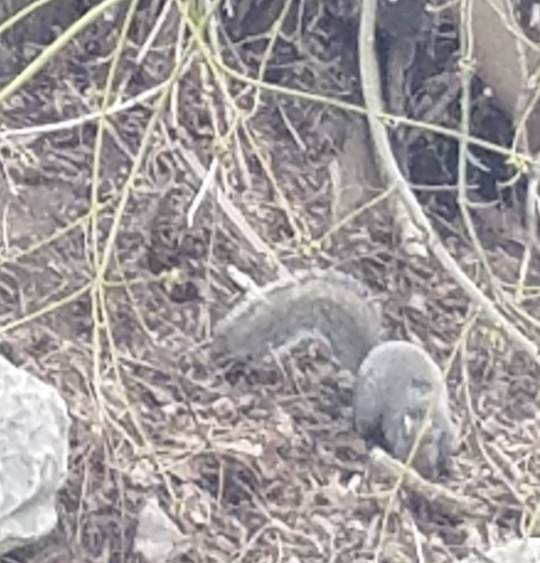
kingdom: Animalia
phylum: Chordata
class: Mammalia
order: Rodentia
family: Sciuridae
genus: Sciurus
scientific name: Sciurus carolinensis
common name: Eastern gray squirrel
